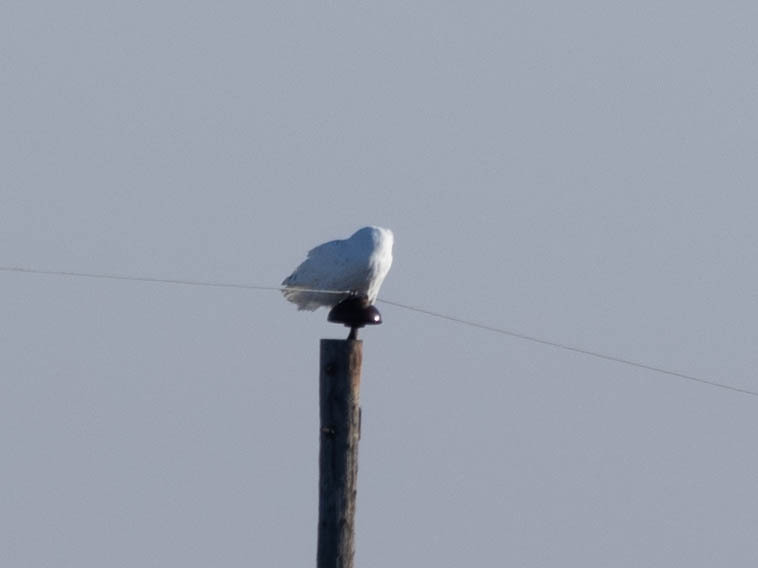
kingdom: Animalia
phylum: Chordata
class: Aves
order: Strigiformes
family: Strigidae
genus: Bubo
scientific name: Bubo scandiacus
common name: Snowy owl
